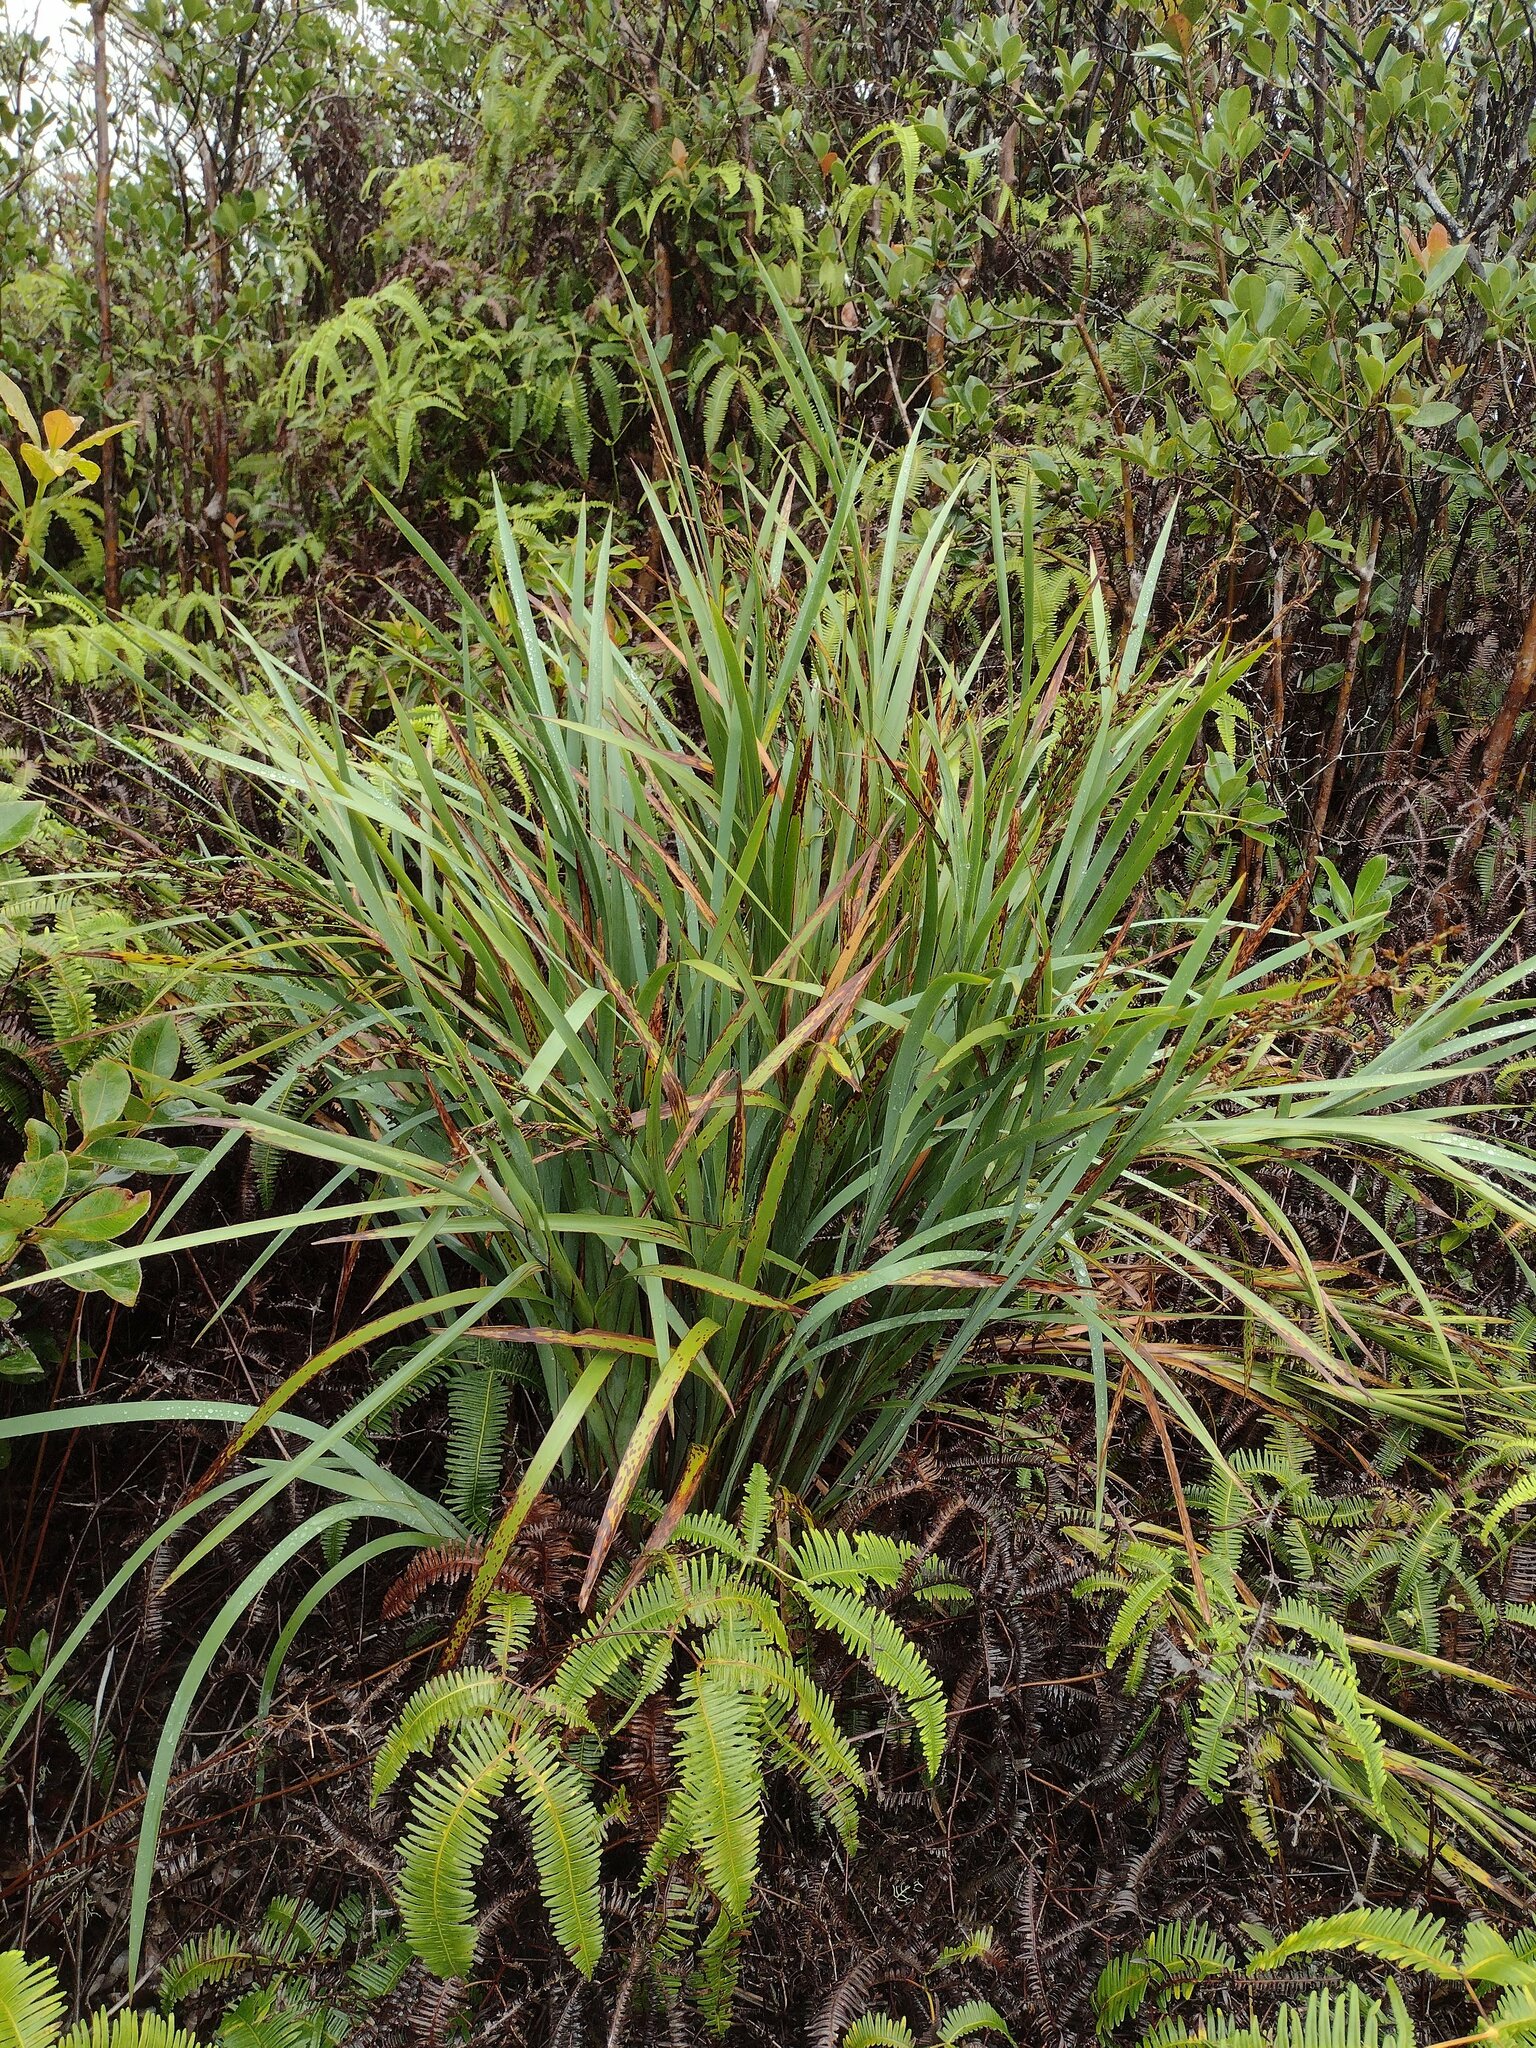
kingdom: Plantae
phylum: Tracheophyta
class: Liliopsida
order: Poales
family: Cyperaceae
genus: Machaerina
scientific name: Machaerina mariscoides
